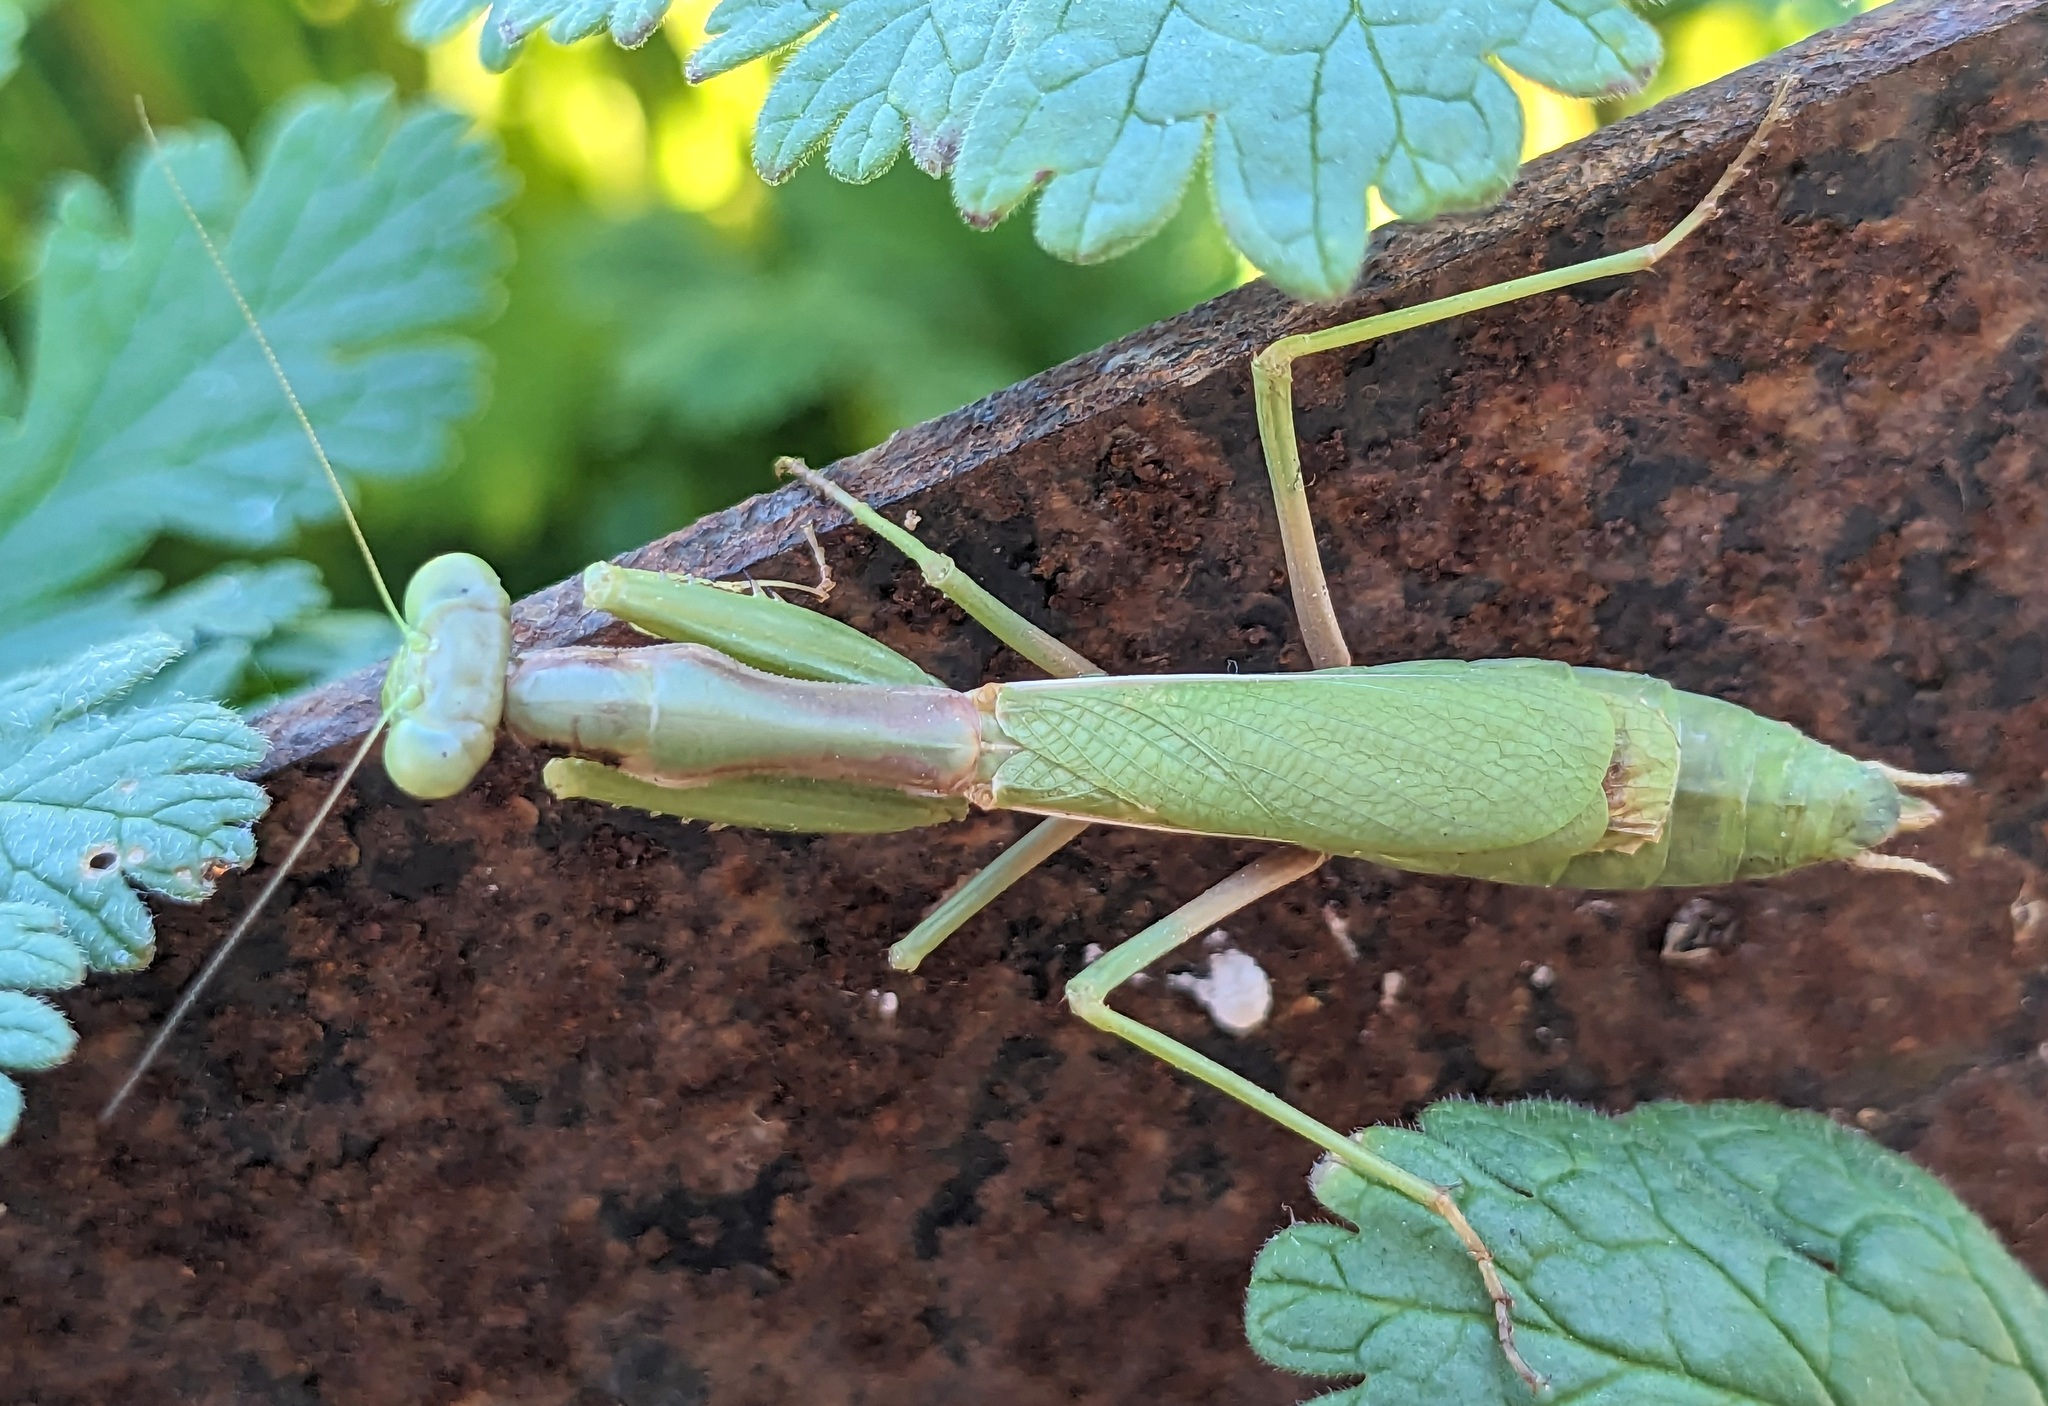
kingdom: Animalia
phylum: Arthropoda
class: Insecta
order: Mantodea
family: Eremiaphilidae
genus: Iris
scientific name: Iris oratoria
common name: Mediterranean mantis
